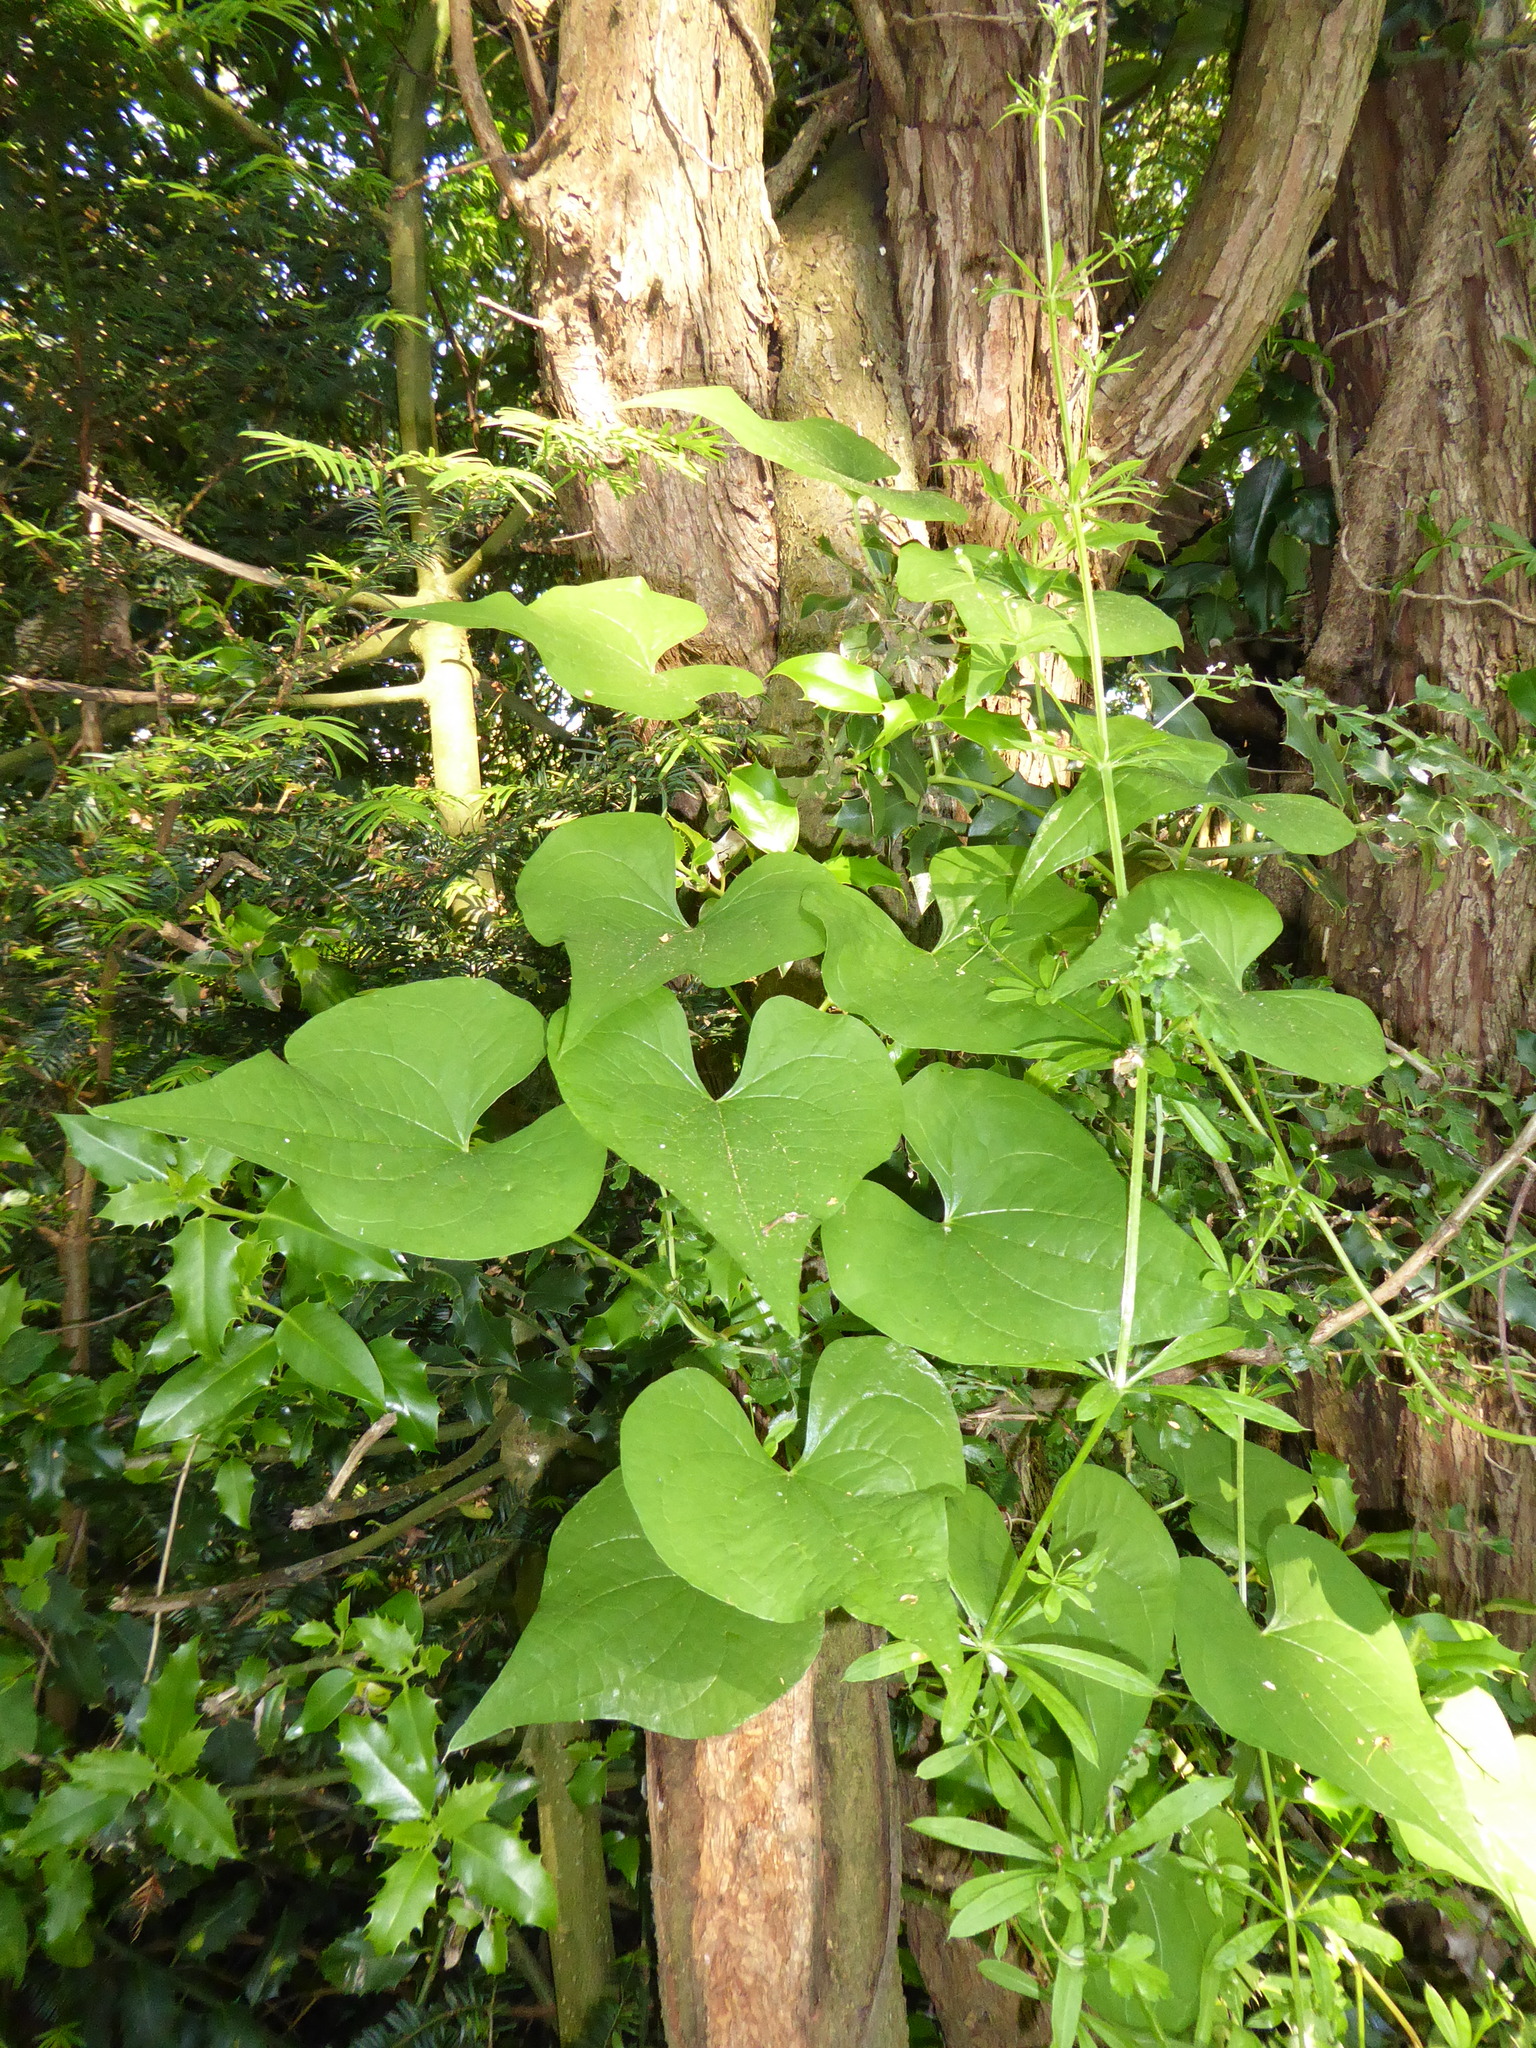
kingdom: Plantae
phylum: Tracheophyta
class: Liliopsida
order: Dioscoreales
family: Dioscoreaceae
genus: Dioscorea
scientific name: Dioscorea communis
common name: Black-bindweed
